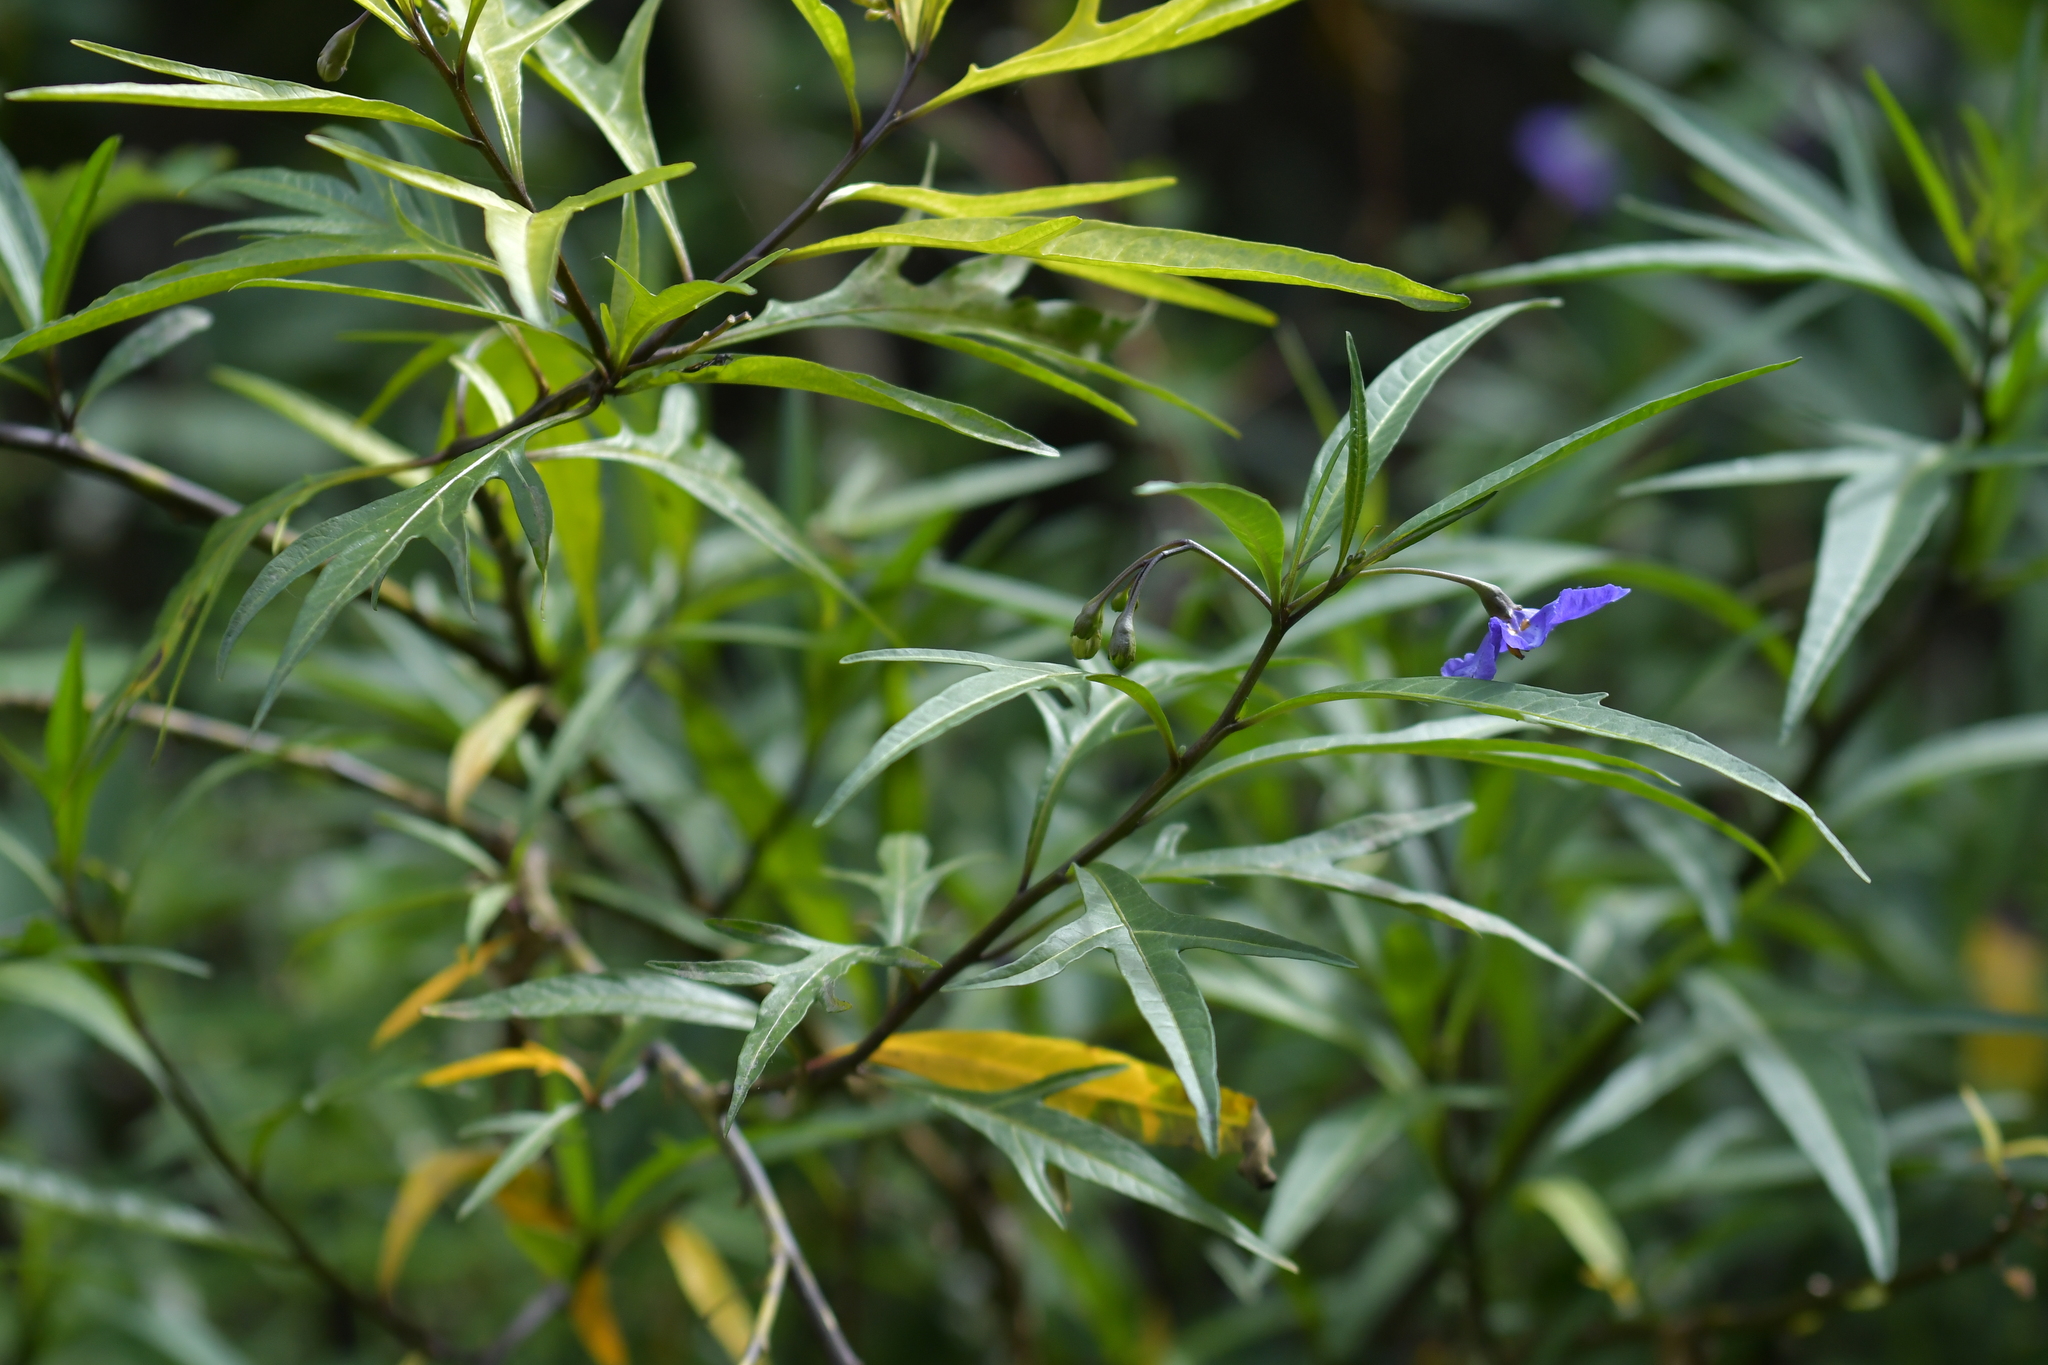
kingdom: Plantae
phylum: Tracheophyta
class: Magnoliopsida
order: Solanales
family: Solanaceae
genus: Solanum
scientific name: Solanum laciniatum
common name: Kangaroo-apple
